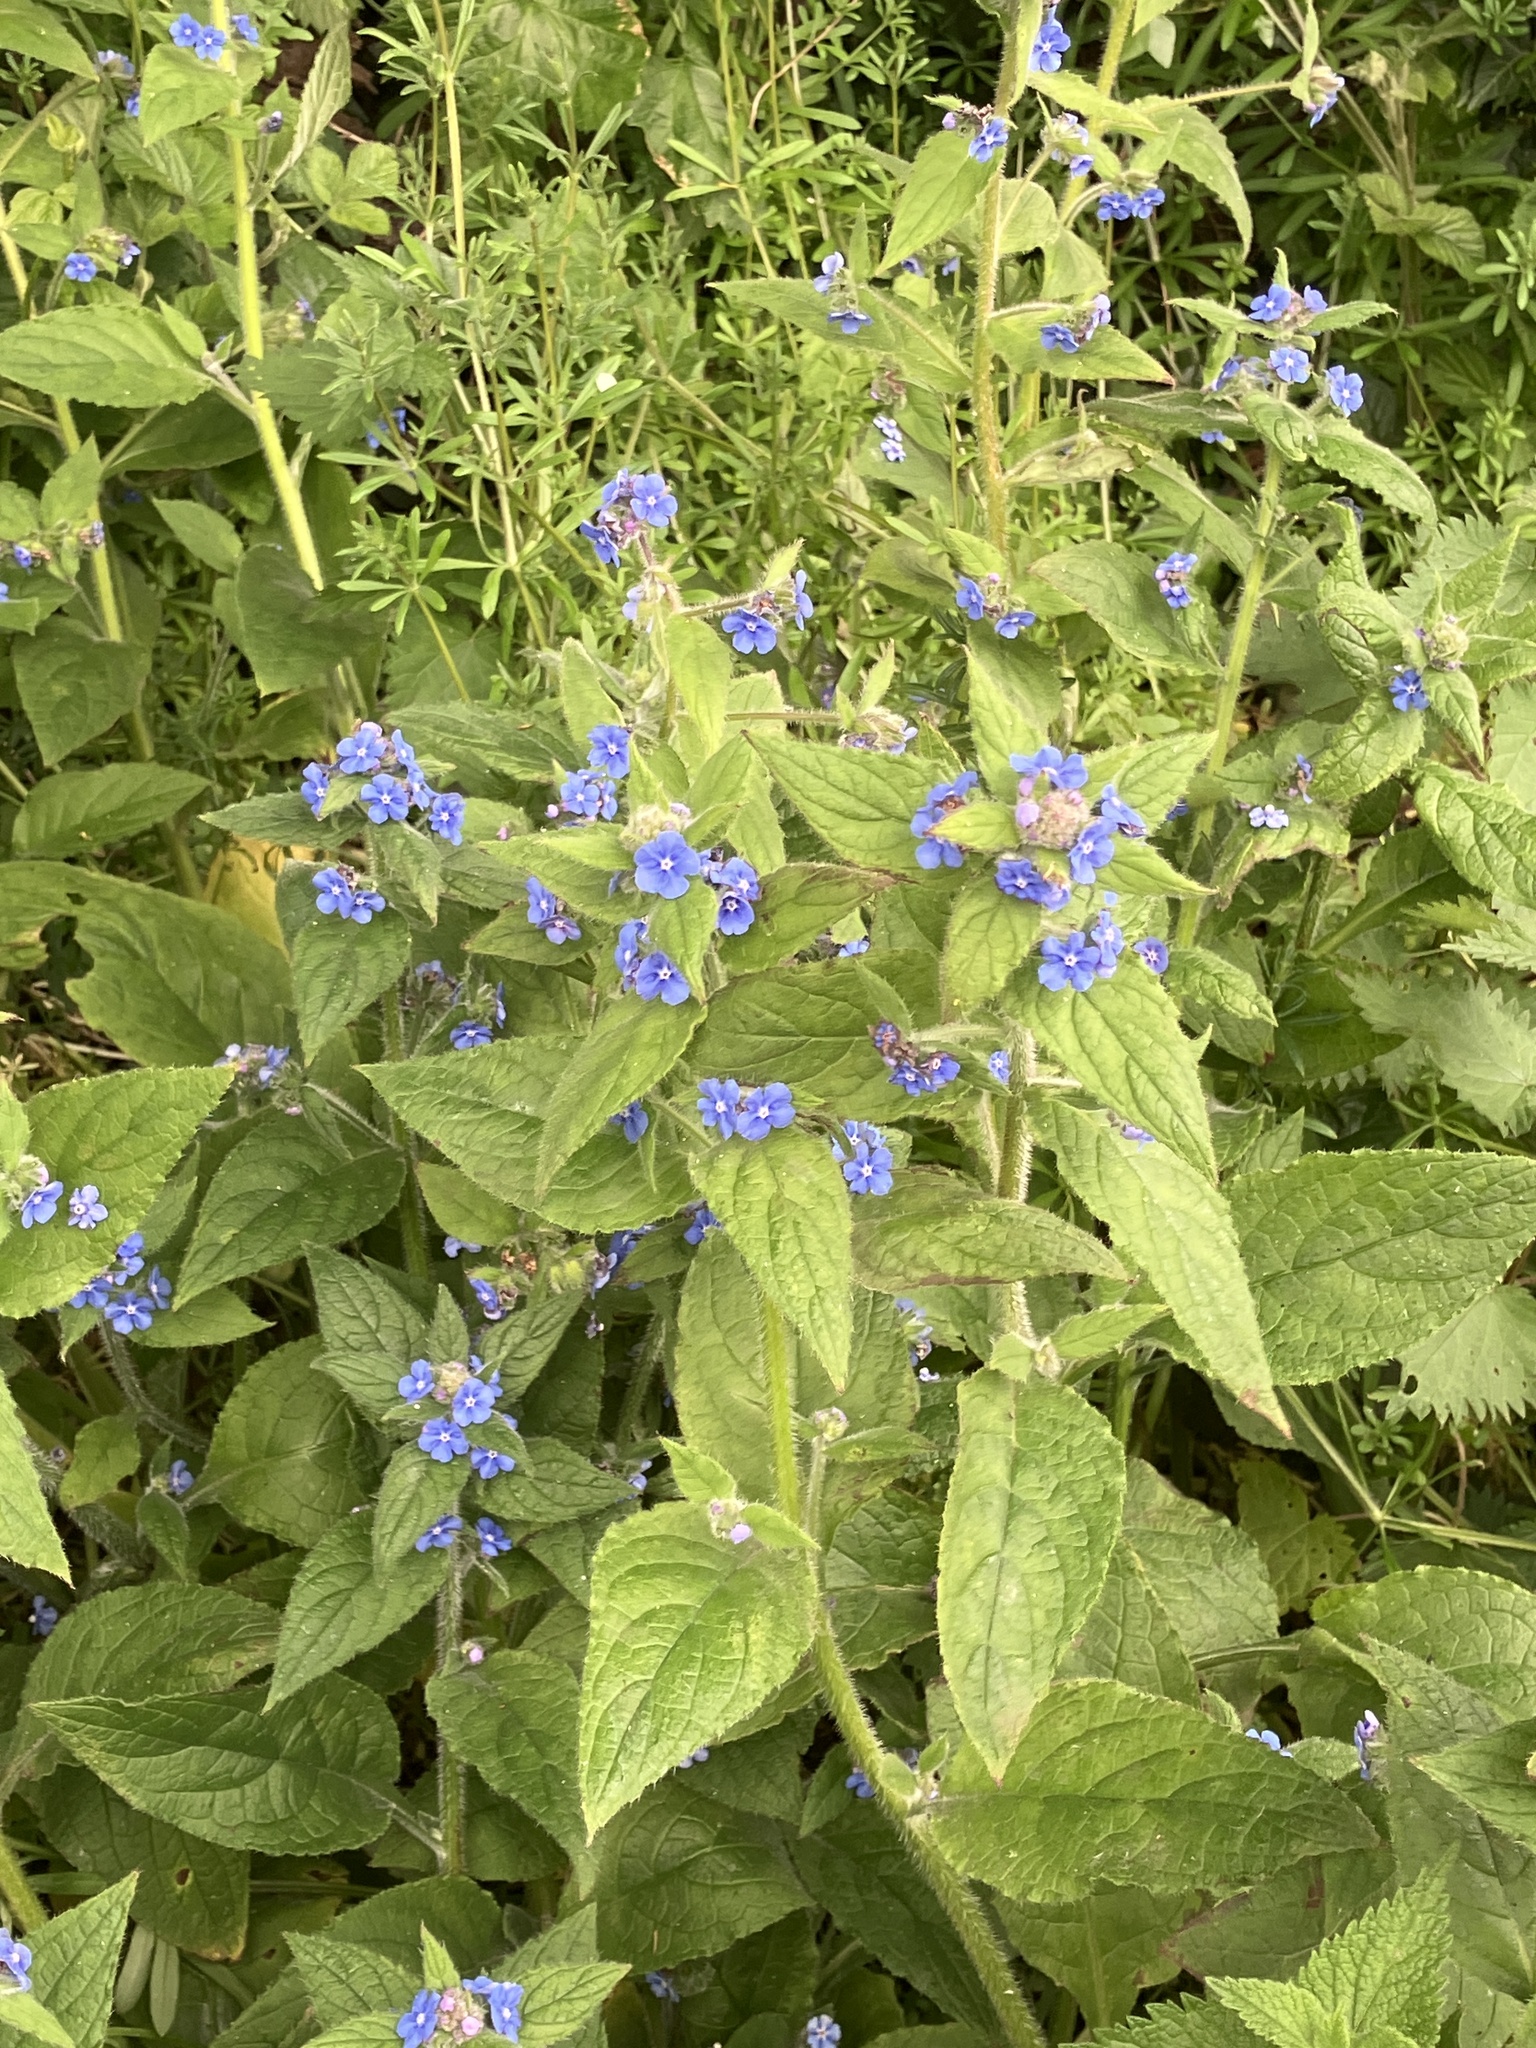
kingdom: Plantae
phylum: Tracheophyta
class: Magnoliopsida
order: Boraginales
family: Boraginaceae
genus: Pentaglottis
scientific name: Pentaglottis sempervirens
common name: Green alkanet
